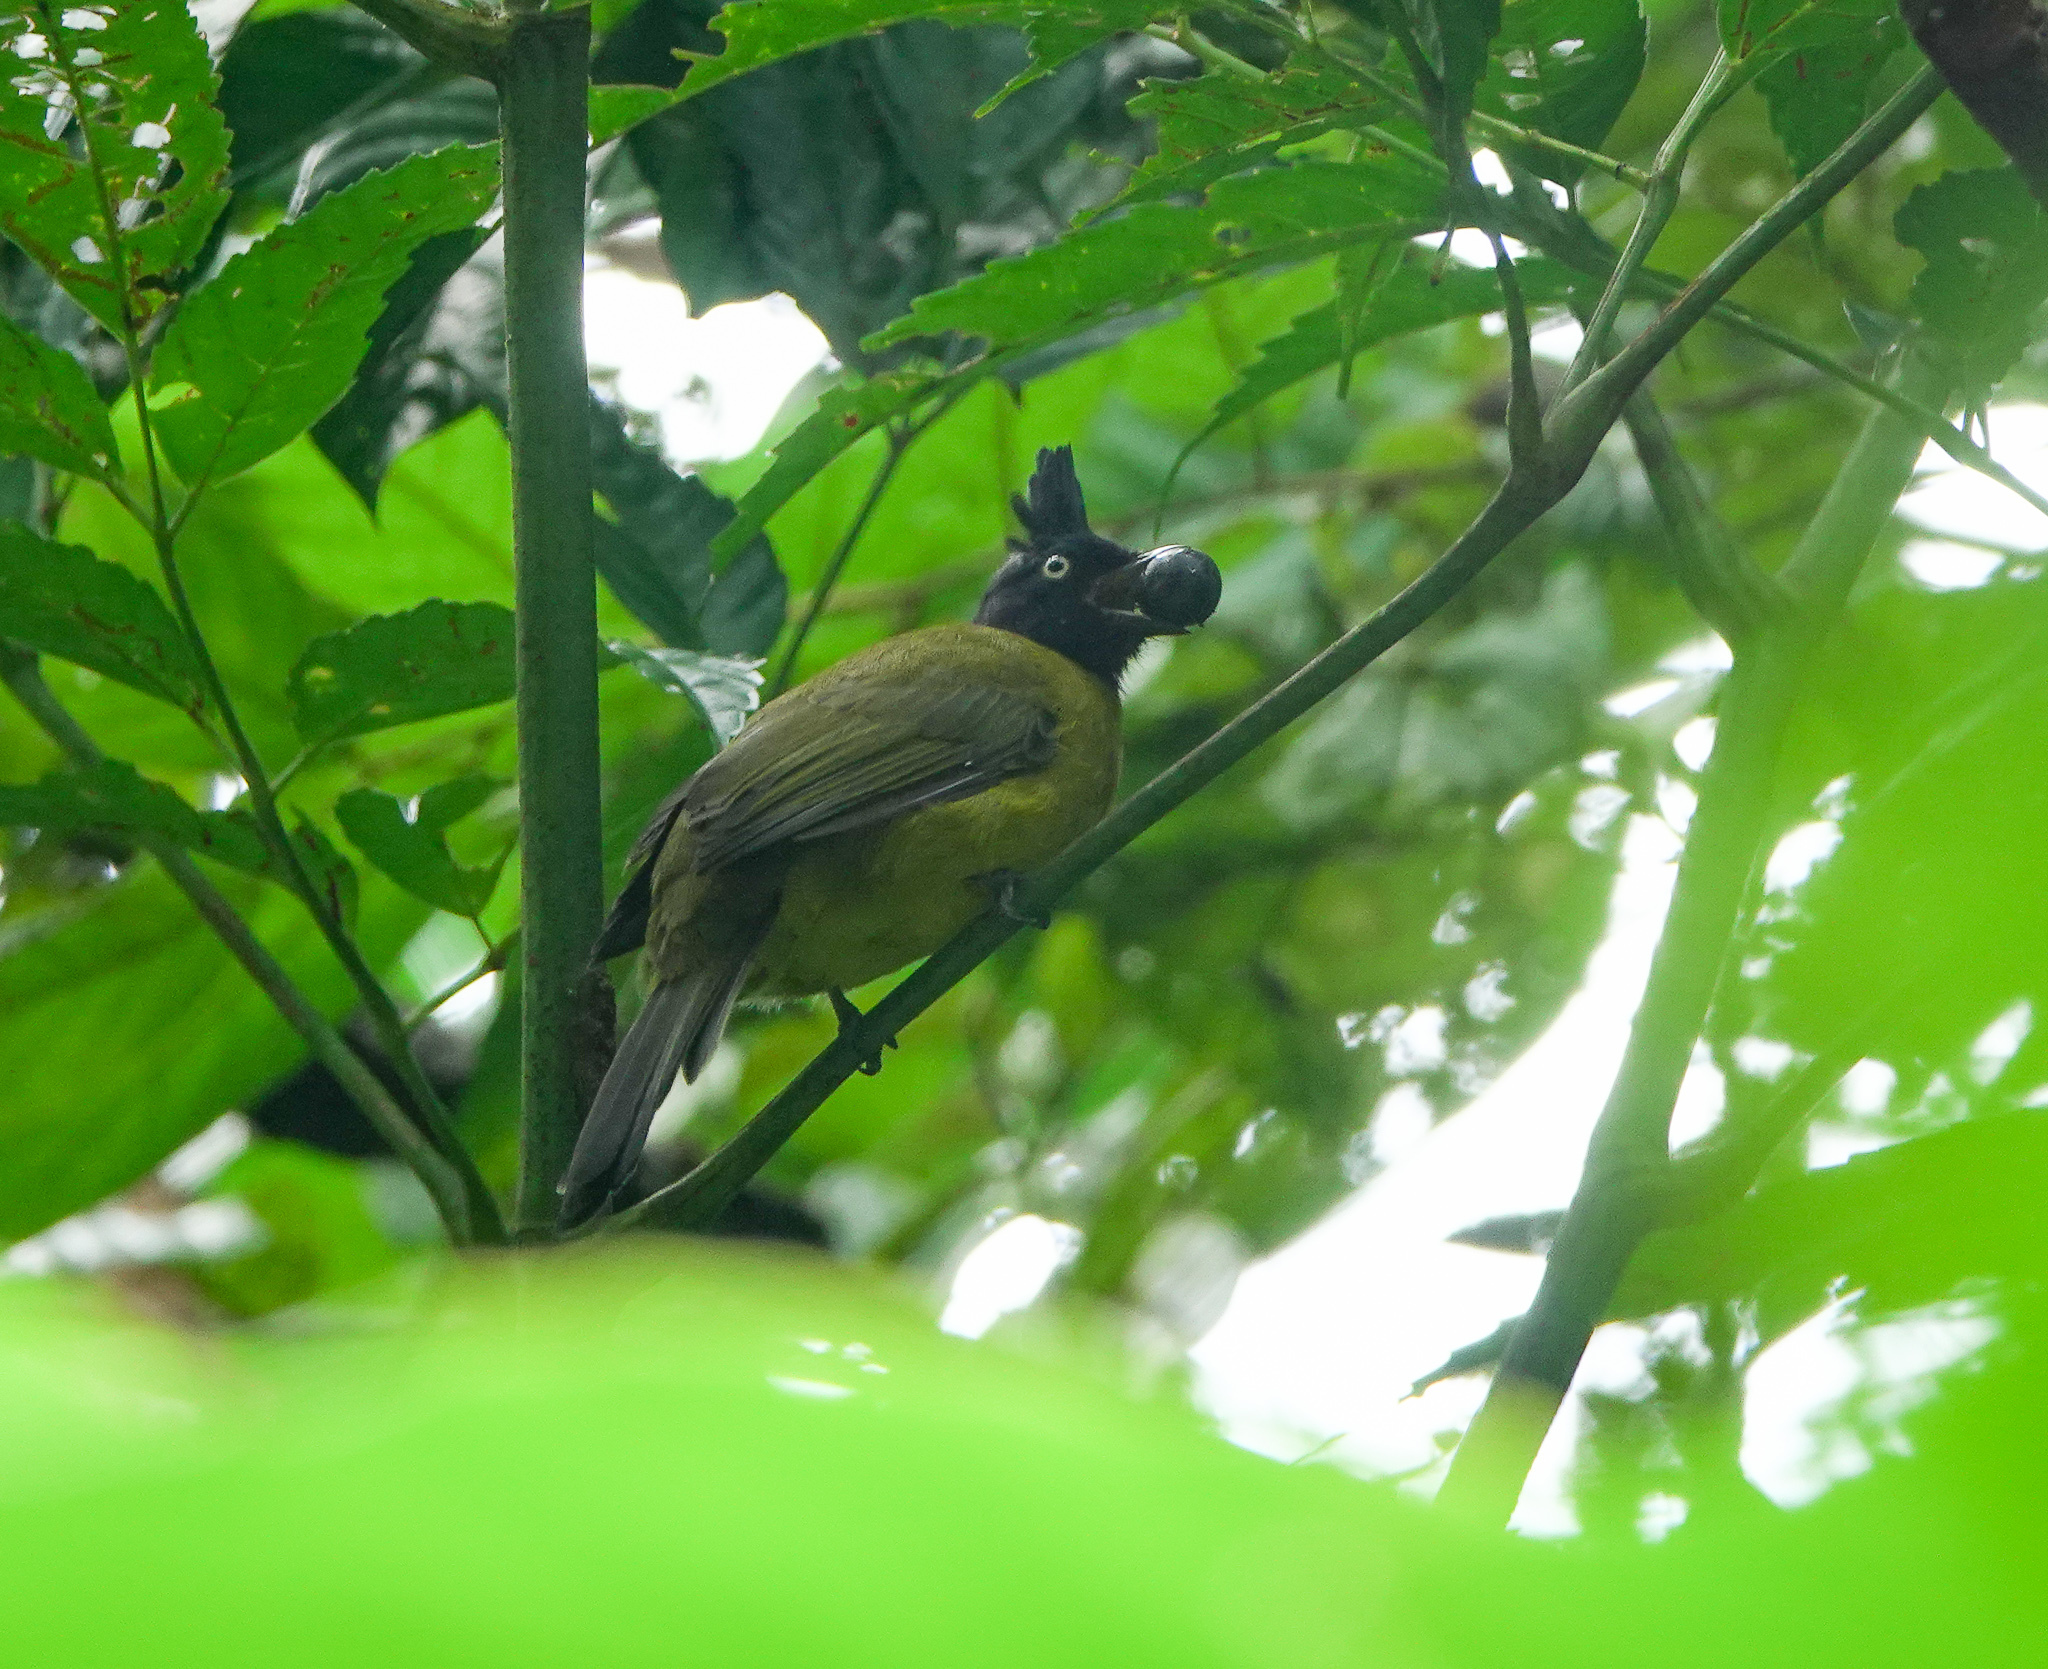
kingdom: Animalia
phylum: Chordata
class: Aves
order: Passeriformes
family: Pycnonotidae
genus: Pycnonotus
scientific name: Pycnonotus flaviventris
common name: Black-crested bulbul
